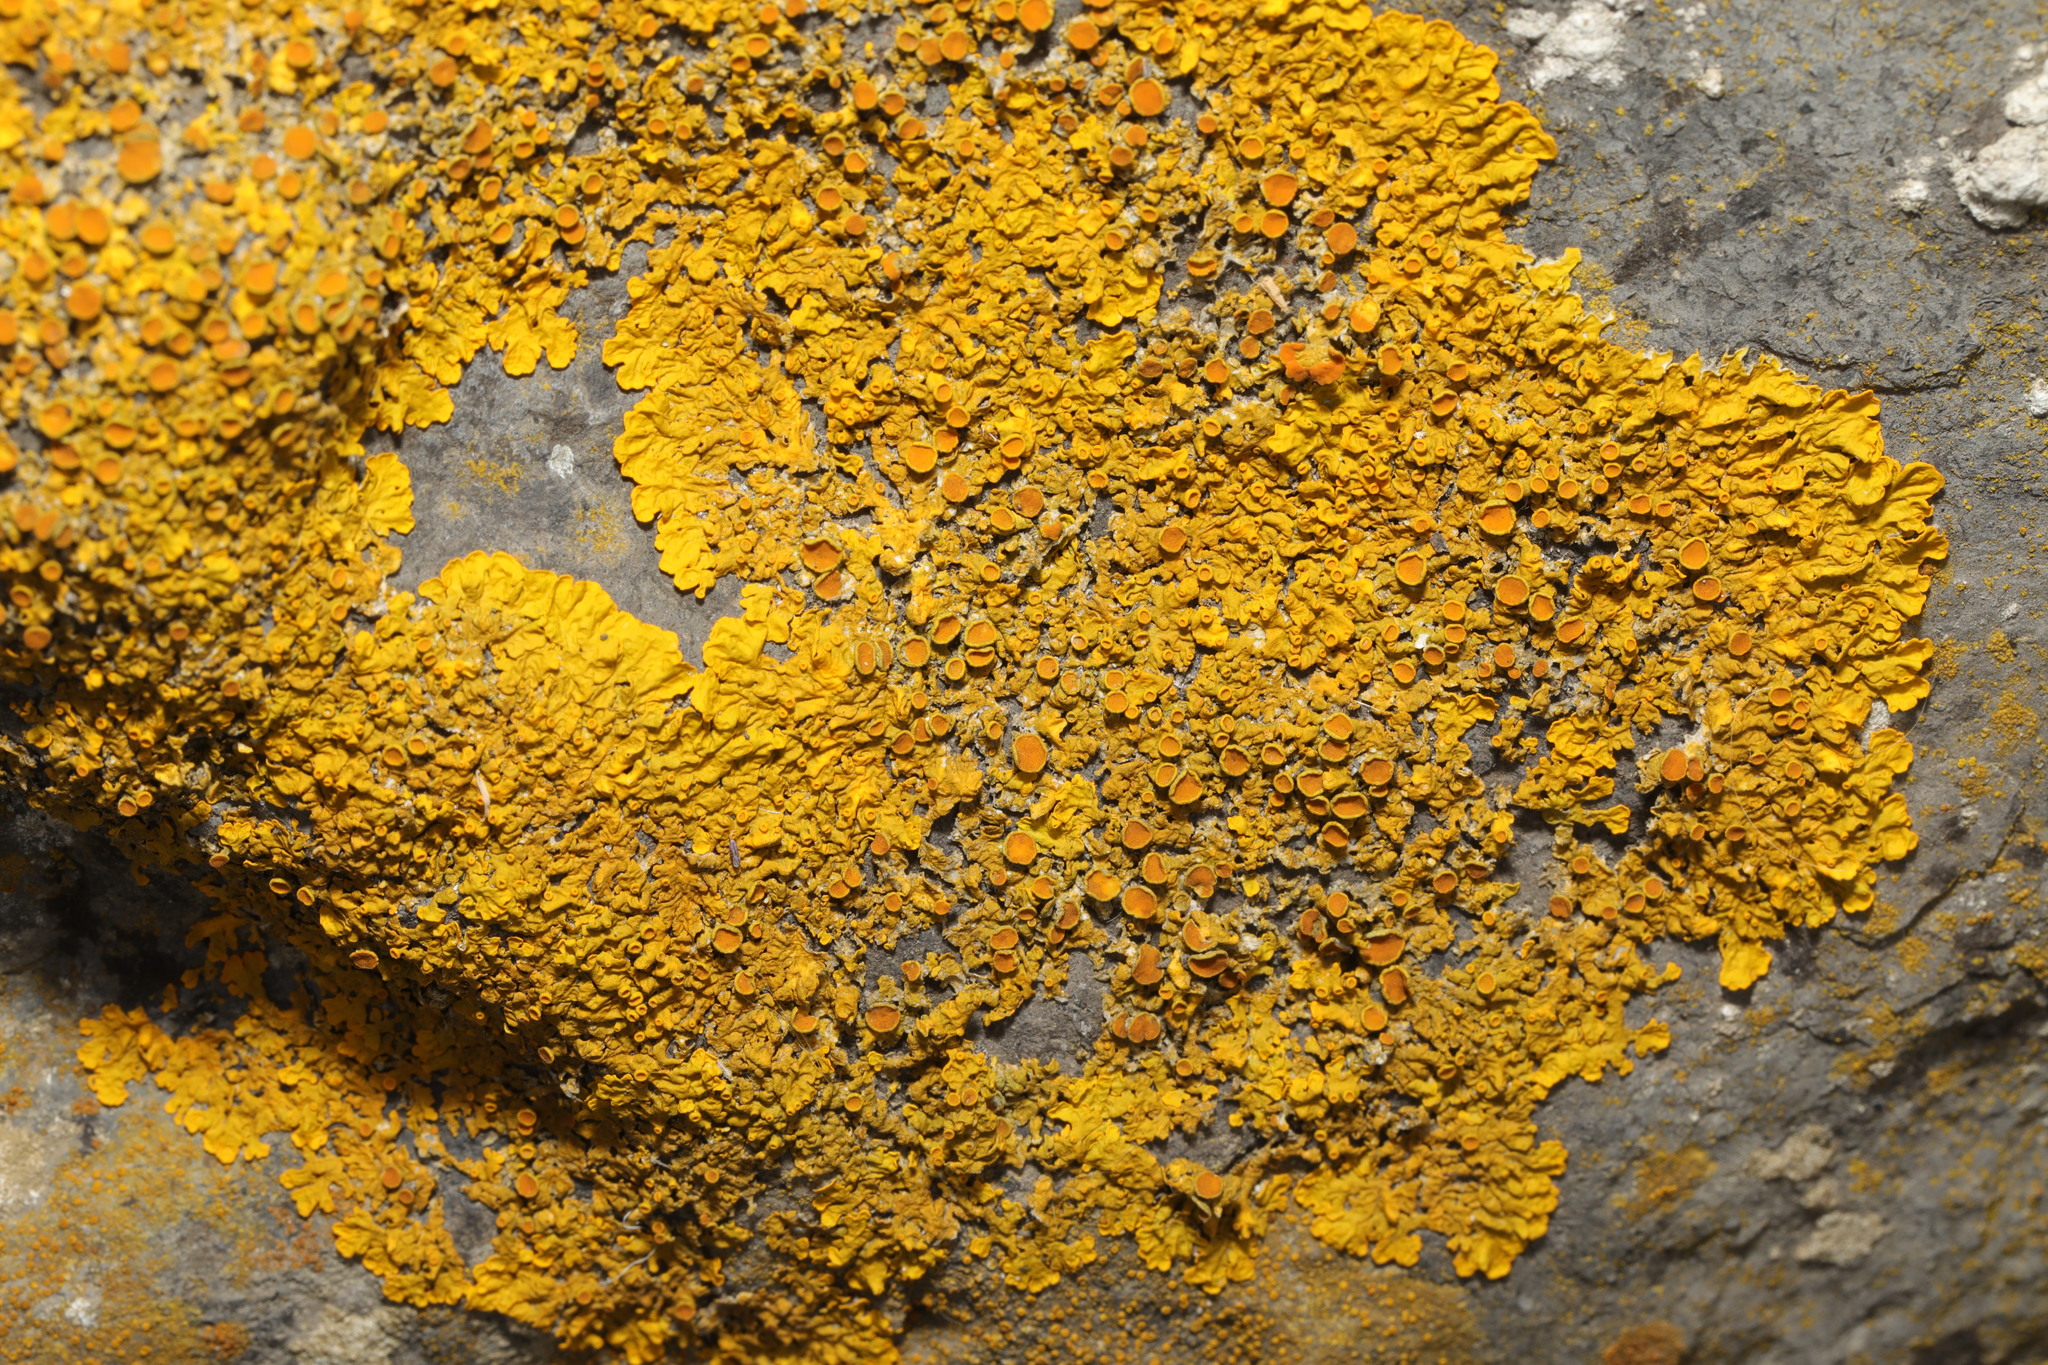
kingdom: Fungi
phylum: Ascomycota
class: Lecanoromycetes
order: Teloschistales
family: Teloschistaceae
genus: Xanthoria
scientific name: Xanthoria parietina
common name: Common orange lichen
